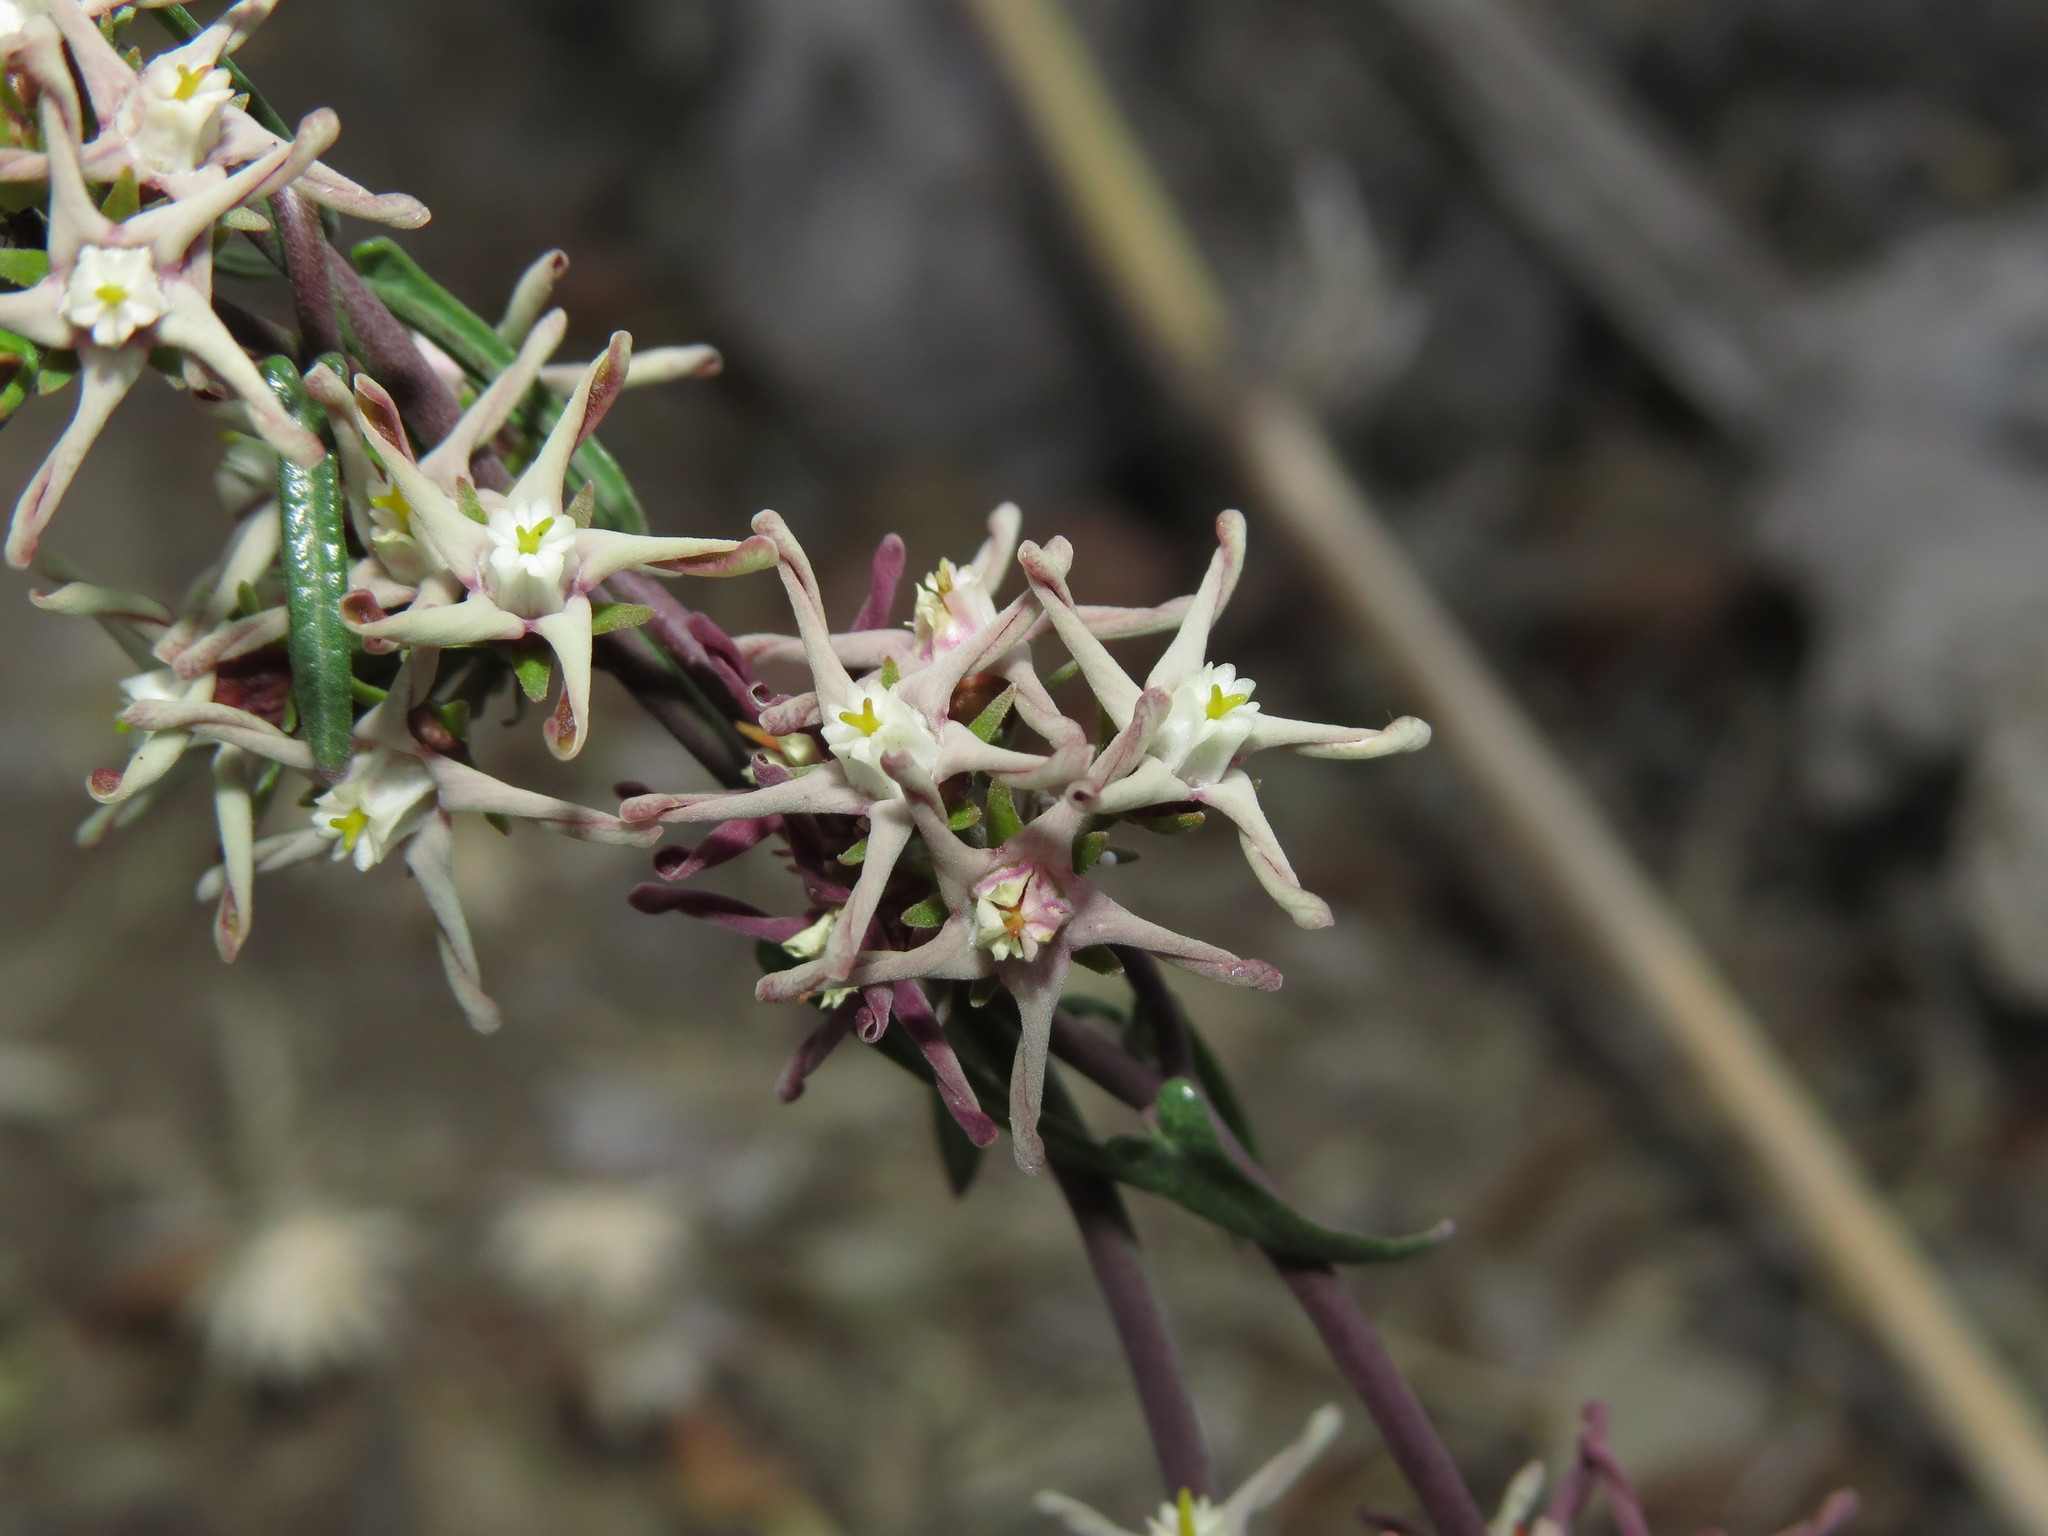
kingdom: Plantae
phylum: Tracheophyta
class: Magnoliopsida
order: Gentianales
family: Apocynaceae
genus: Tweedia
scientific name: Tweedia birostrata
